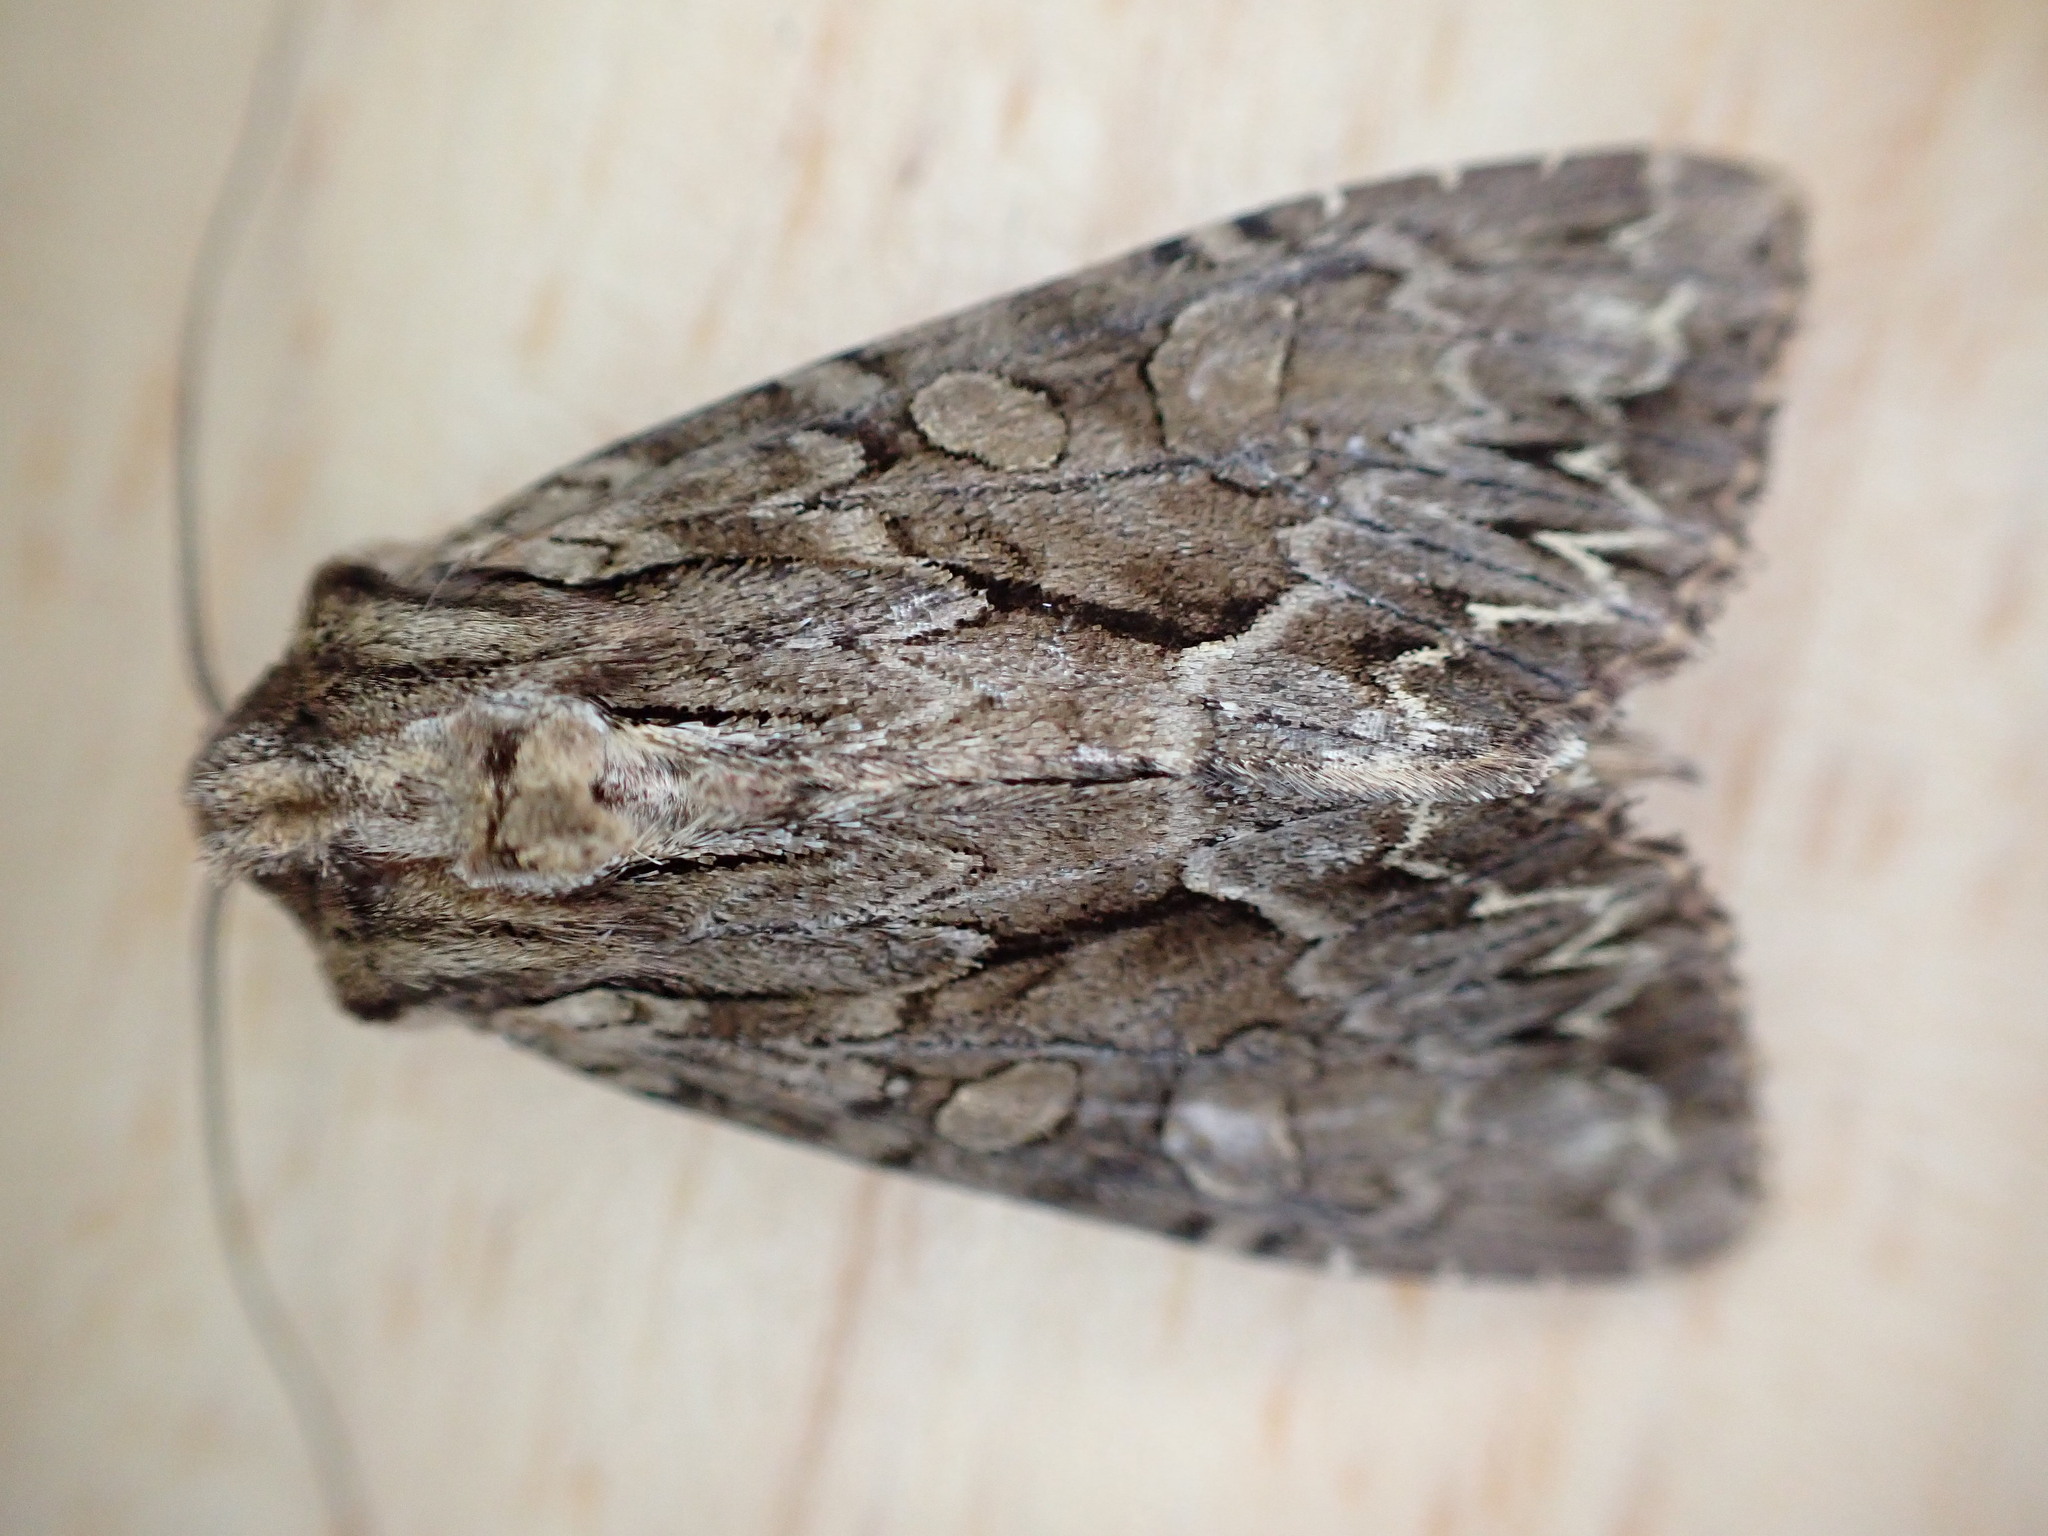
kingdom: Animalia
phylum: Arthropoda
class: Insecta
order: Lepidoptera
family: Noctuidae
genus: Apamea
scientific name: Apamea monoglypha
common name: Dark arches
